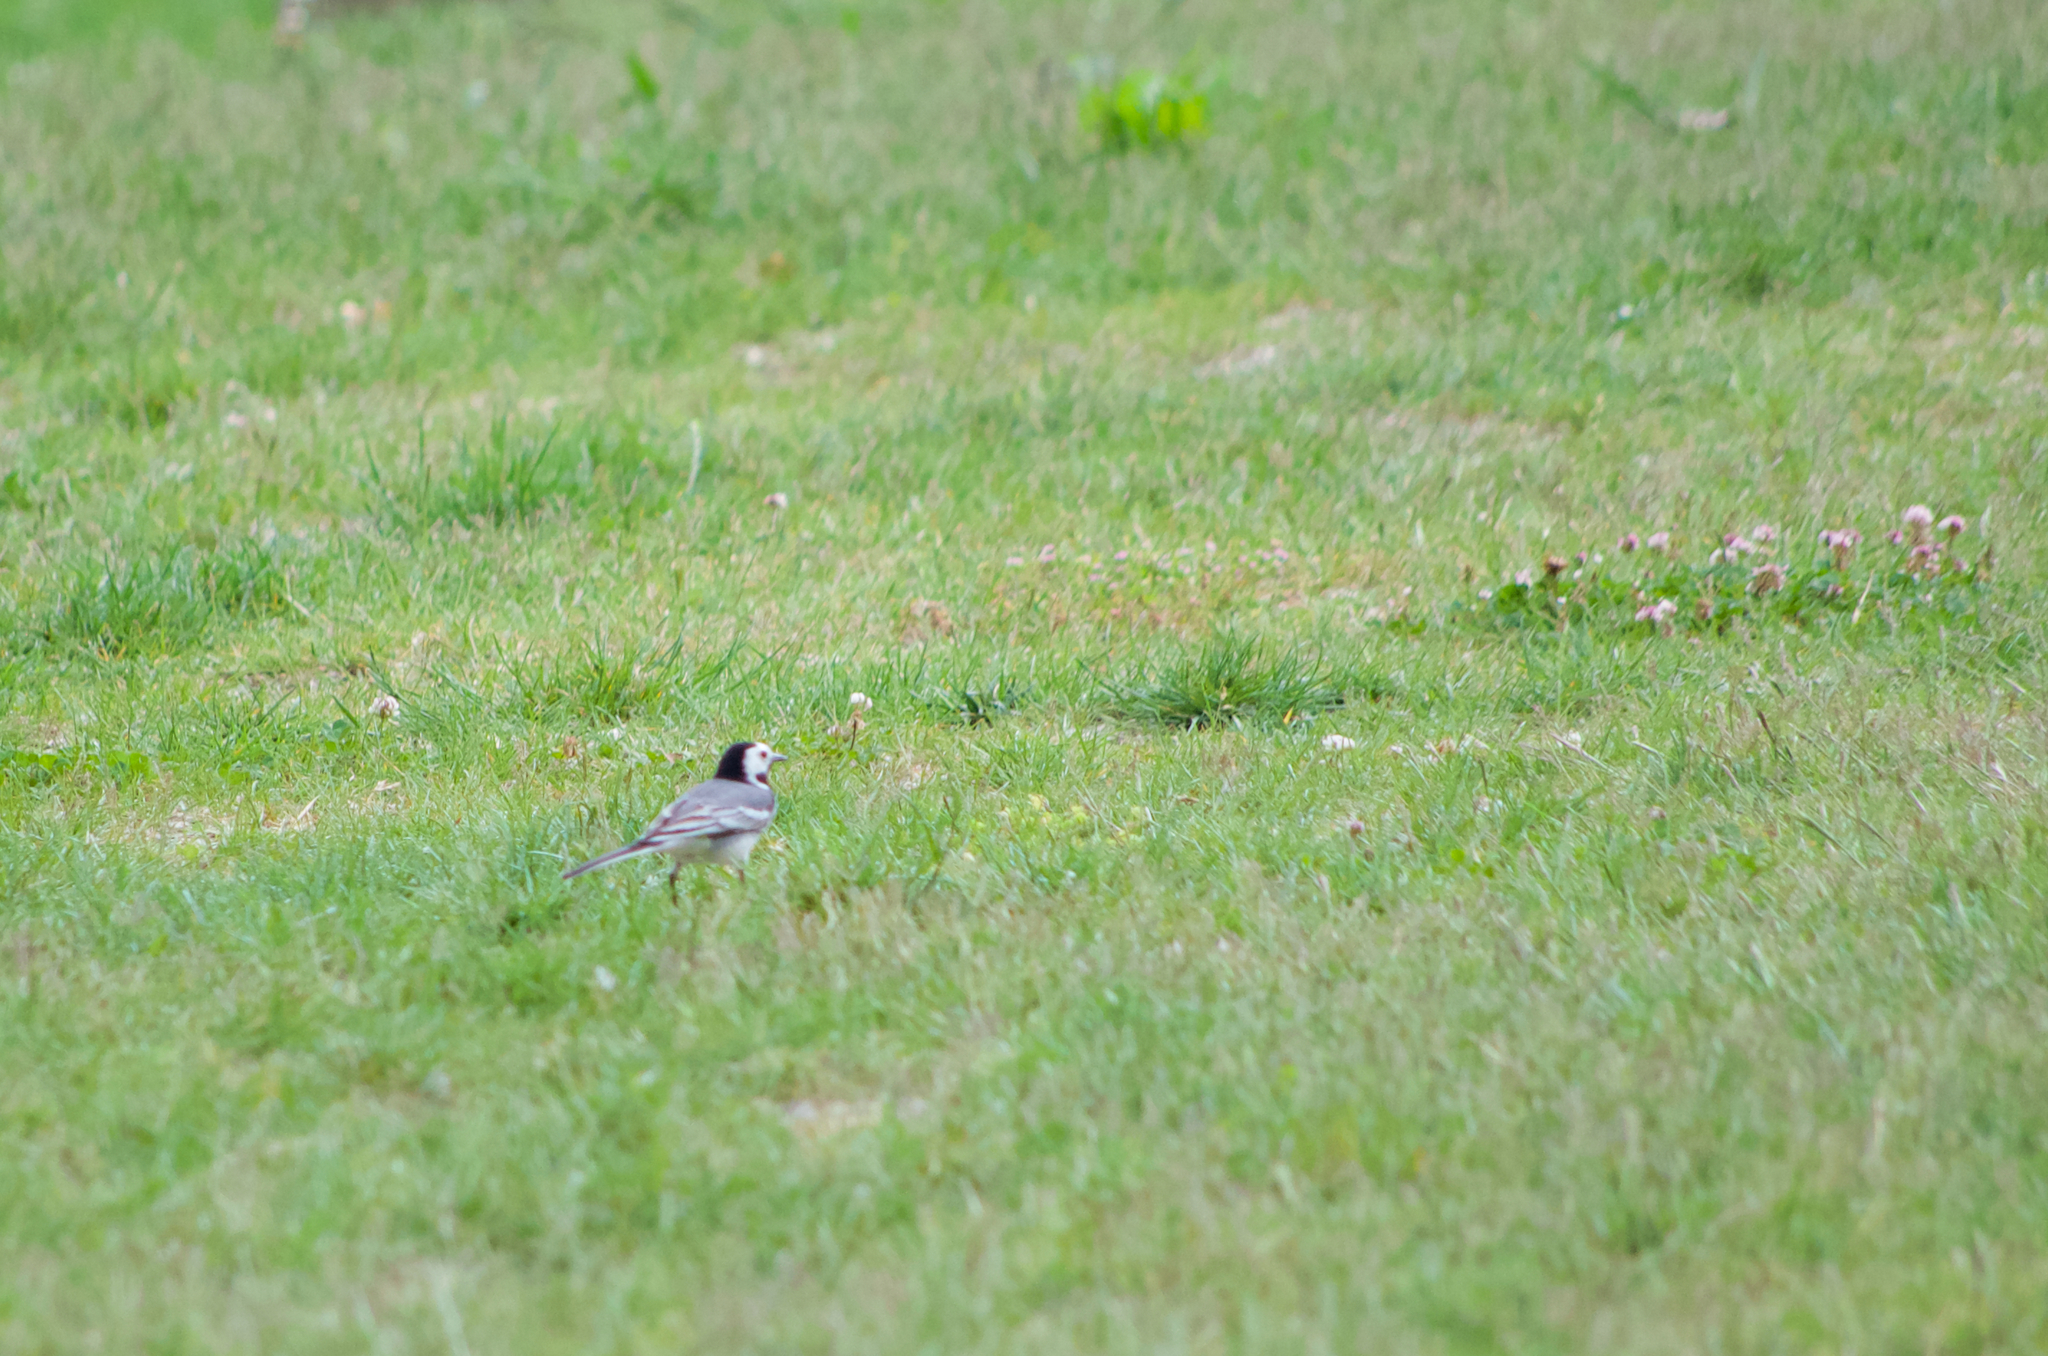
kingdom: Animalia
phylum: Chordata
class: Aves
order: Passeriformes
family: Motacillidae
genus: Motacilla
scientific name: Motacilla alba
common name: White wagtail
